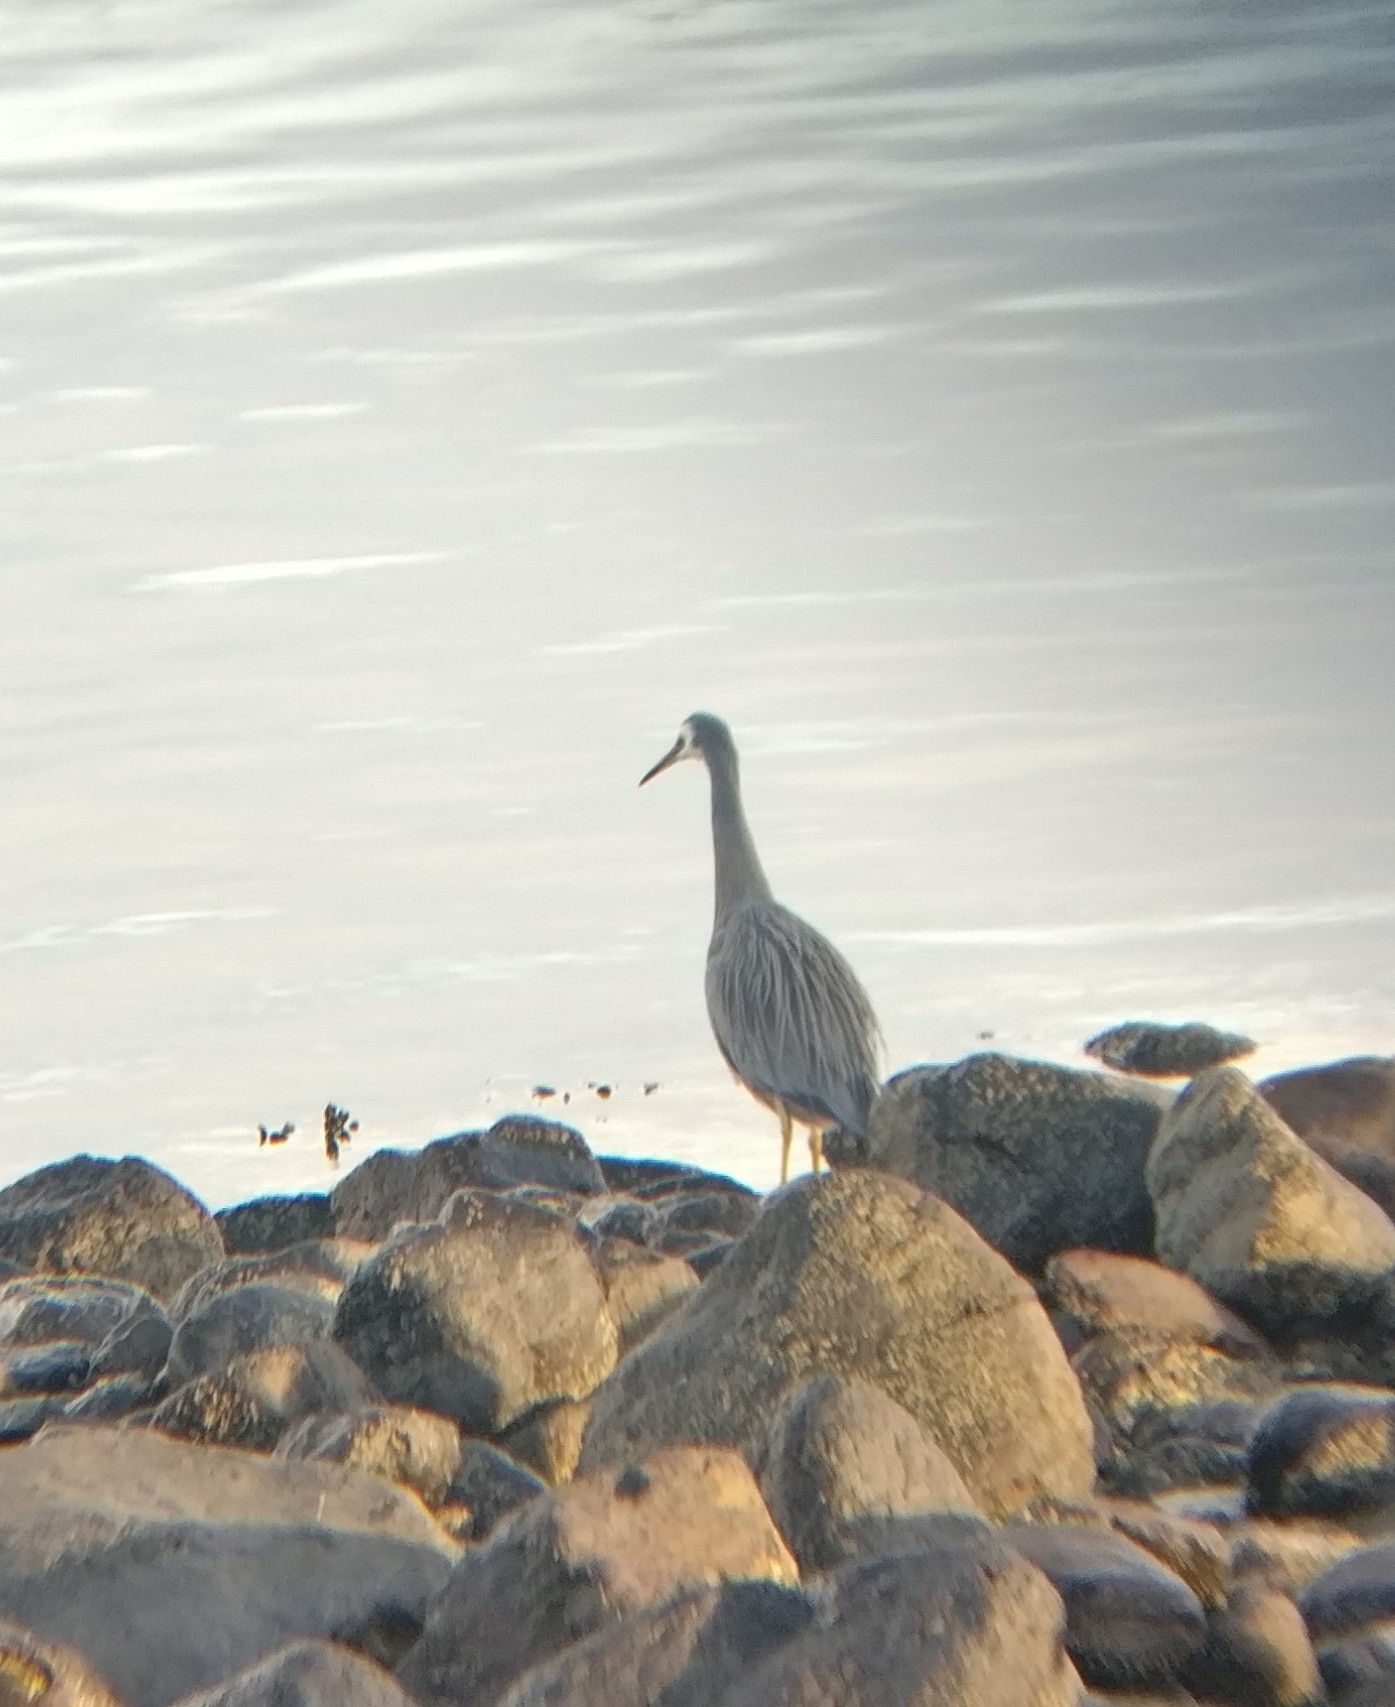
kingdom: Animalia
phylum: Chordata
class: Aves
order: Pelecaniformes
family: Ardeidae
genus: Egretta
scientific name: Egretta novaehollandiae
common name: White-faced heron
